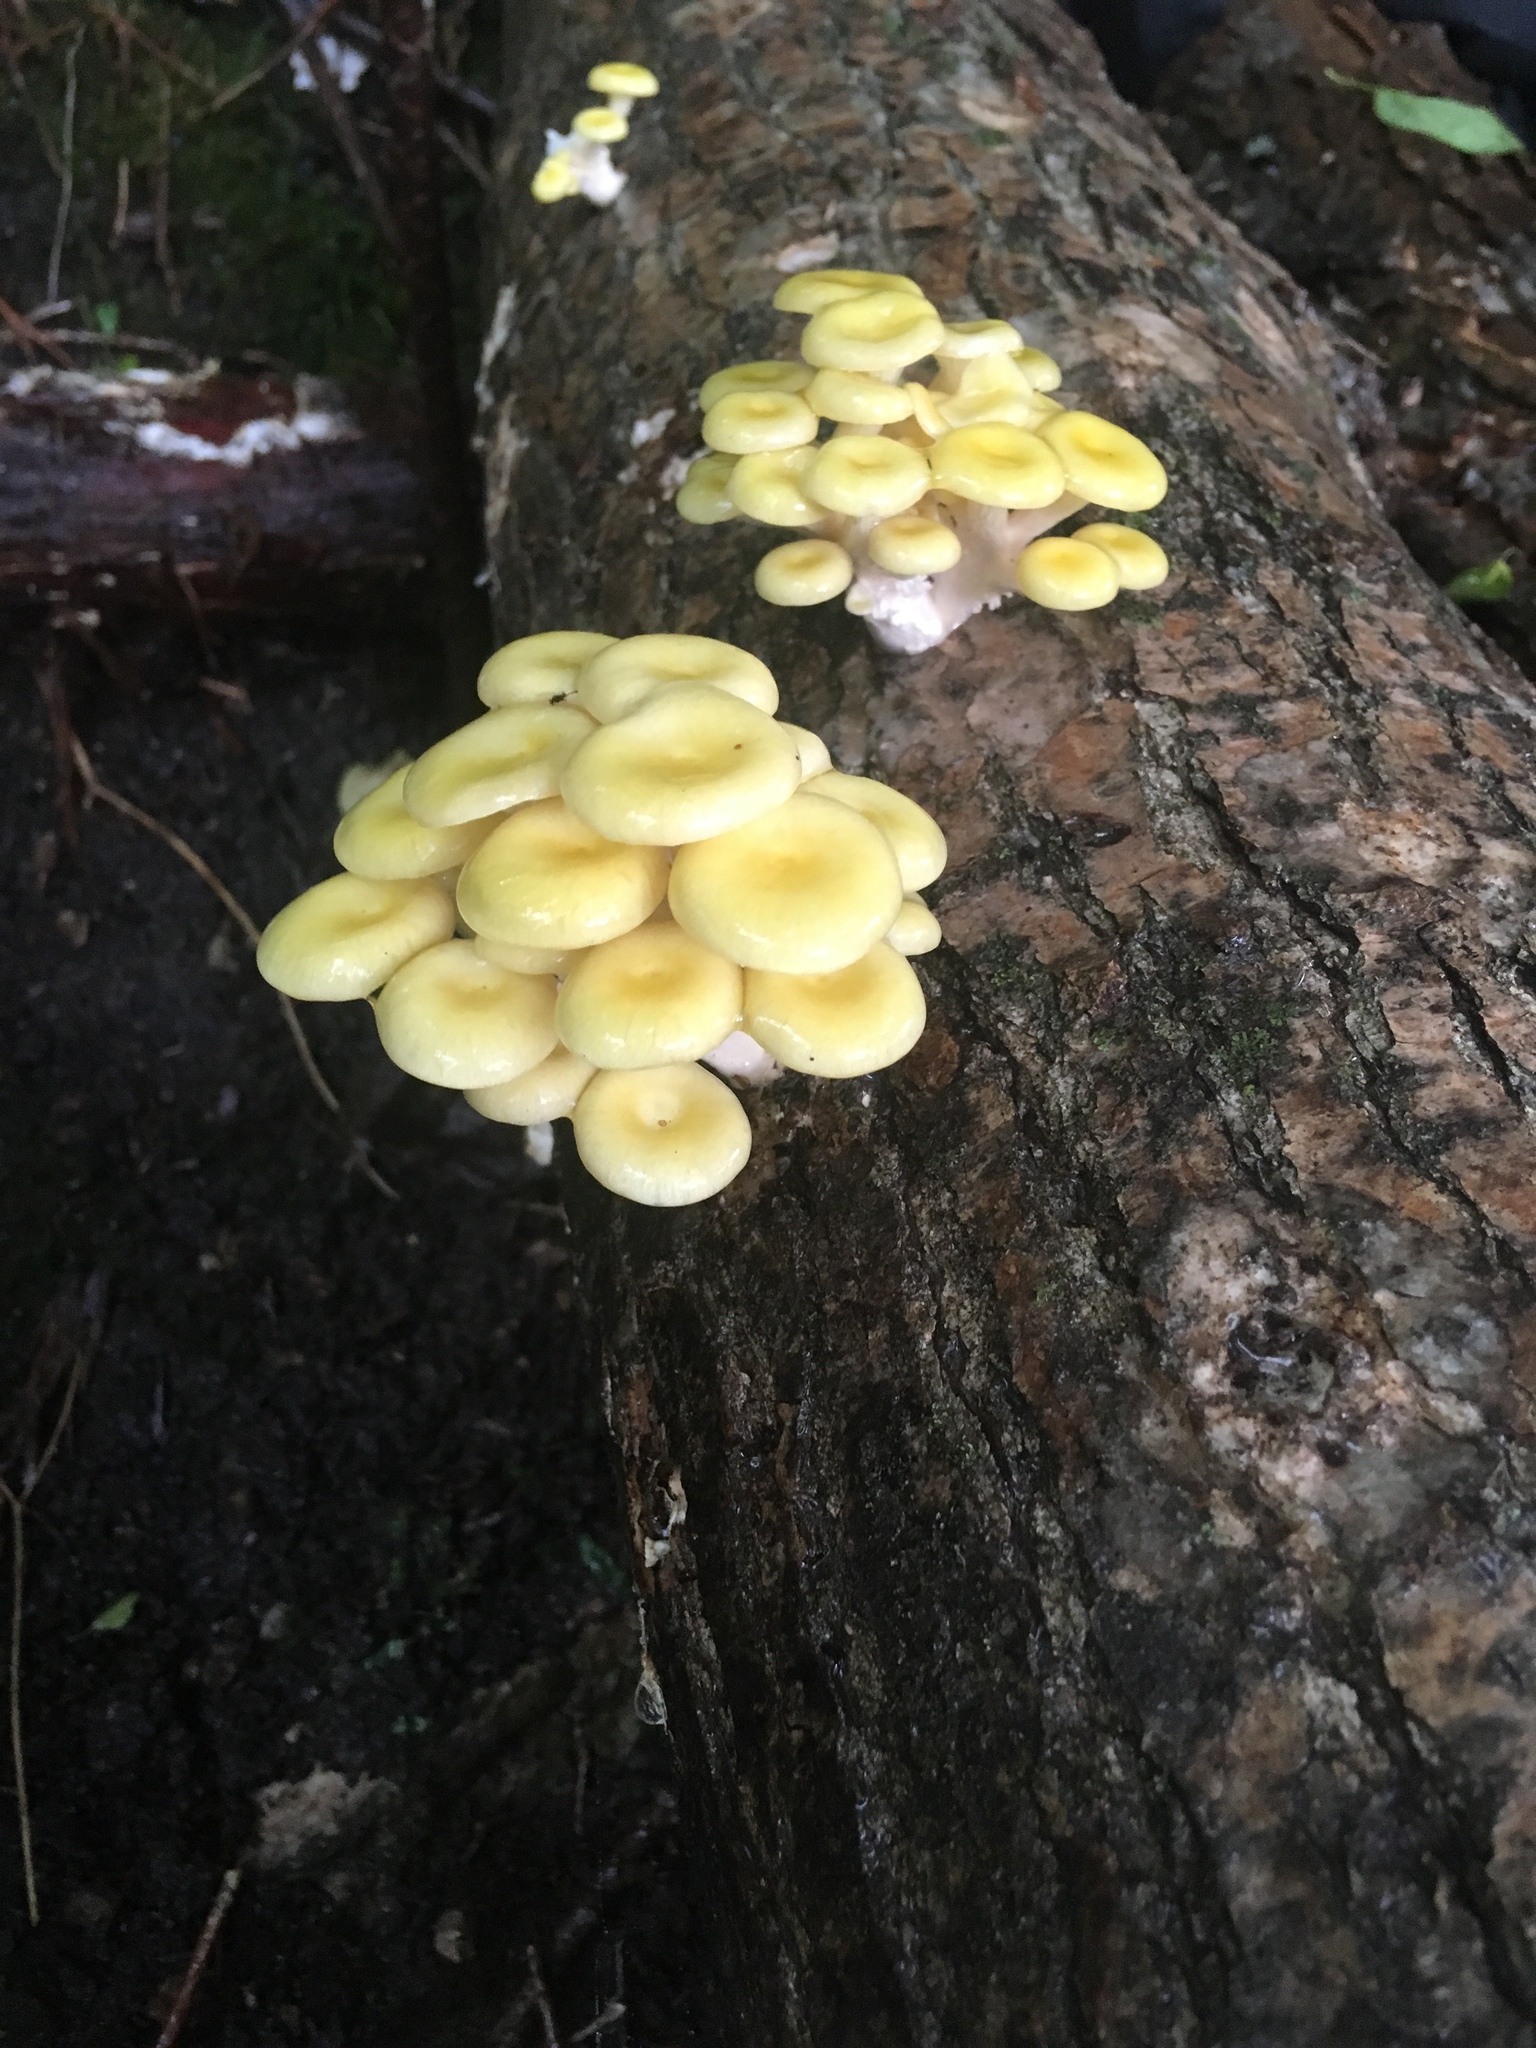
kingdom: Fungi
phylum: Basidiomycota
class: Agaricomycetes
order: Agaricales
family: Pleurotaceae
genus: Pleurotus
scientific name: Pleurotus citrinopileatus
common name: Golden oyster mushroom
